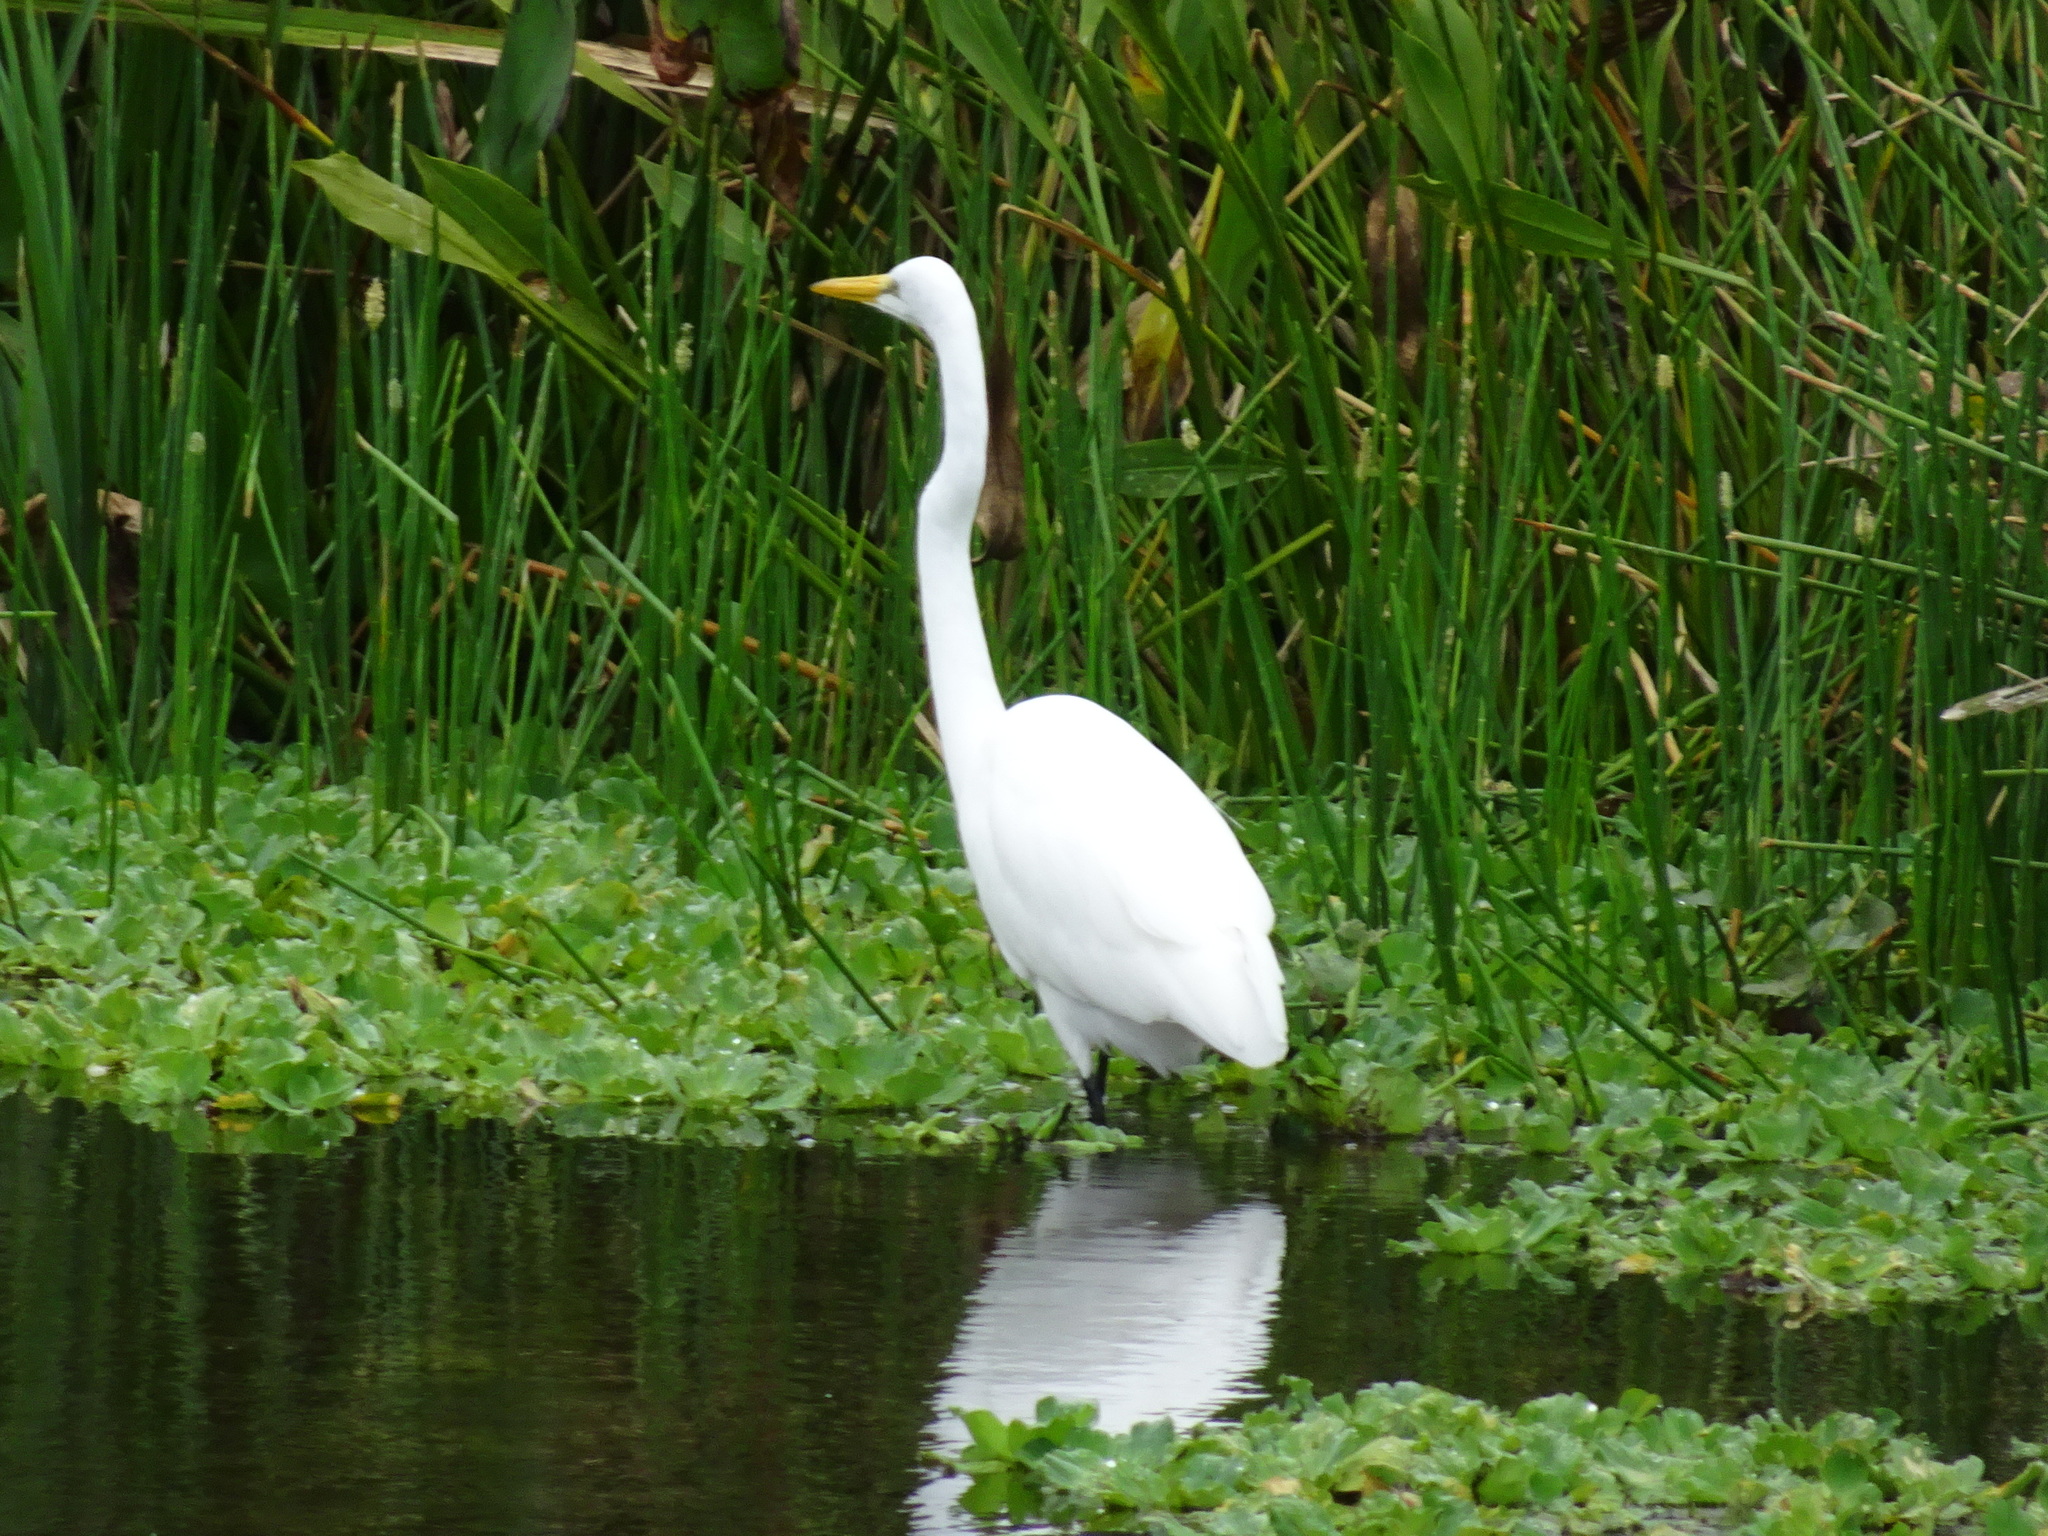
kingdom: Animalia
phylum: Chordata
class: Aves
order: Pelecaniformes
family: Ardeidae
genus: Ardea
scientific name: Ardea alba
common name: Great egret
